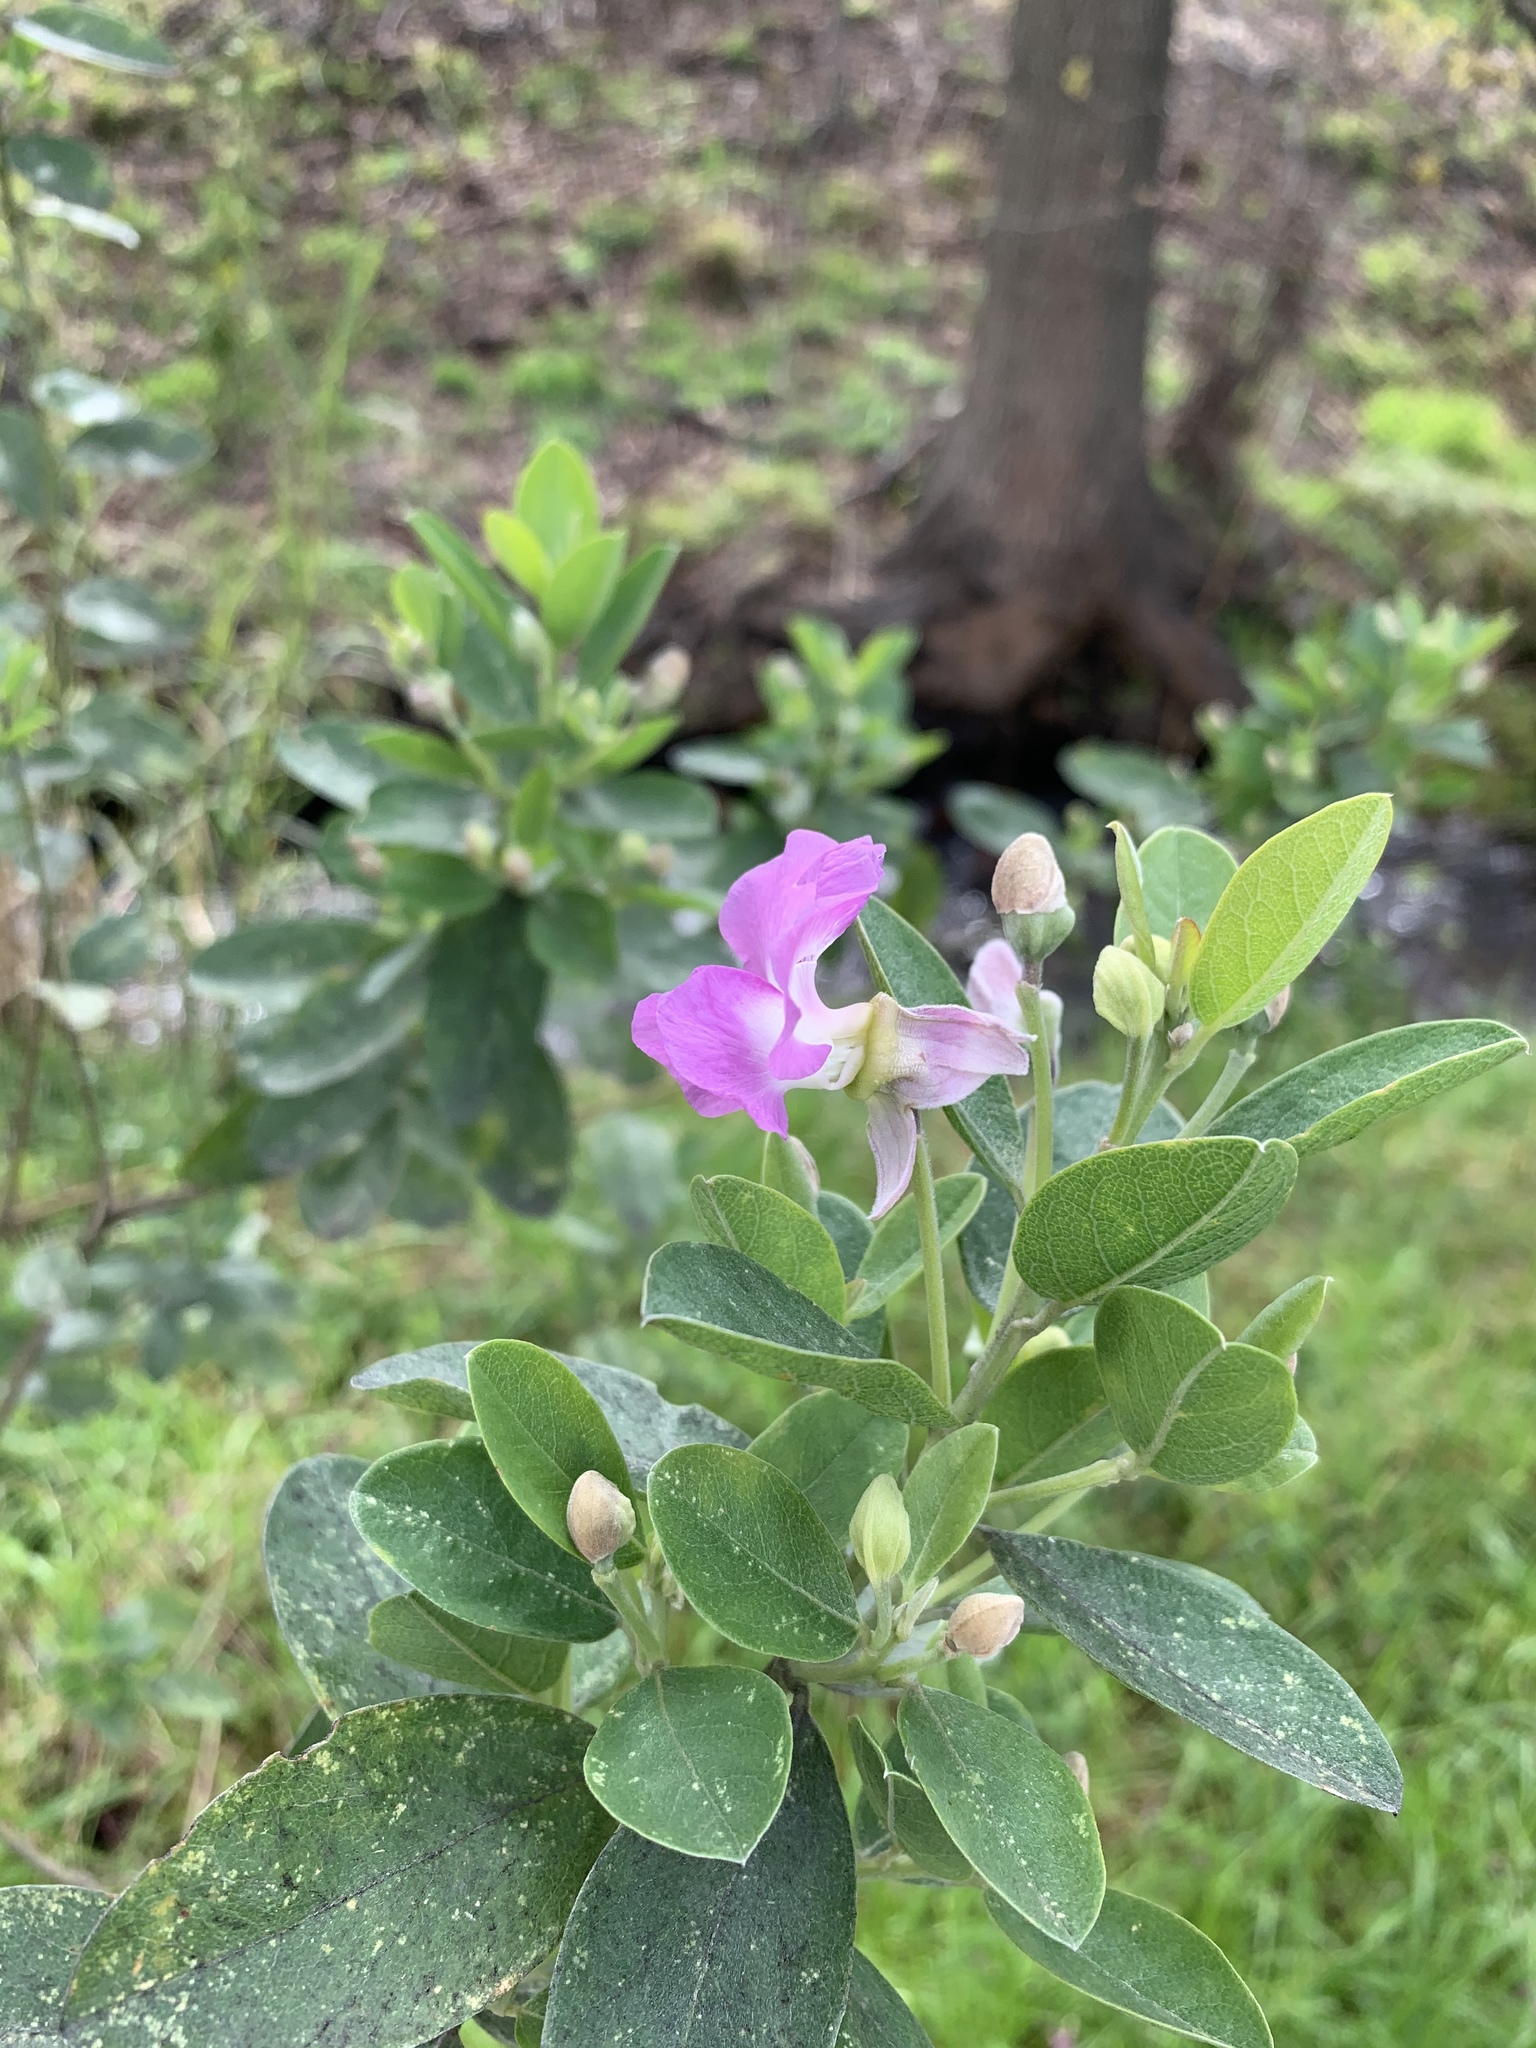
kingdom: Plantae
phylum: Tracheophyta
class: Magnoliopsida
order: Fabales
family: Fabaceae
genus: Podalyria
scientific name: Podalyria calyptrata
